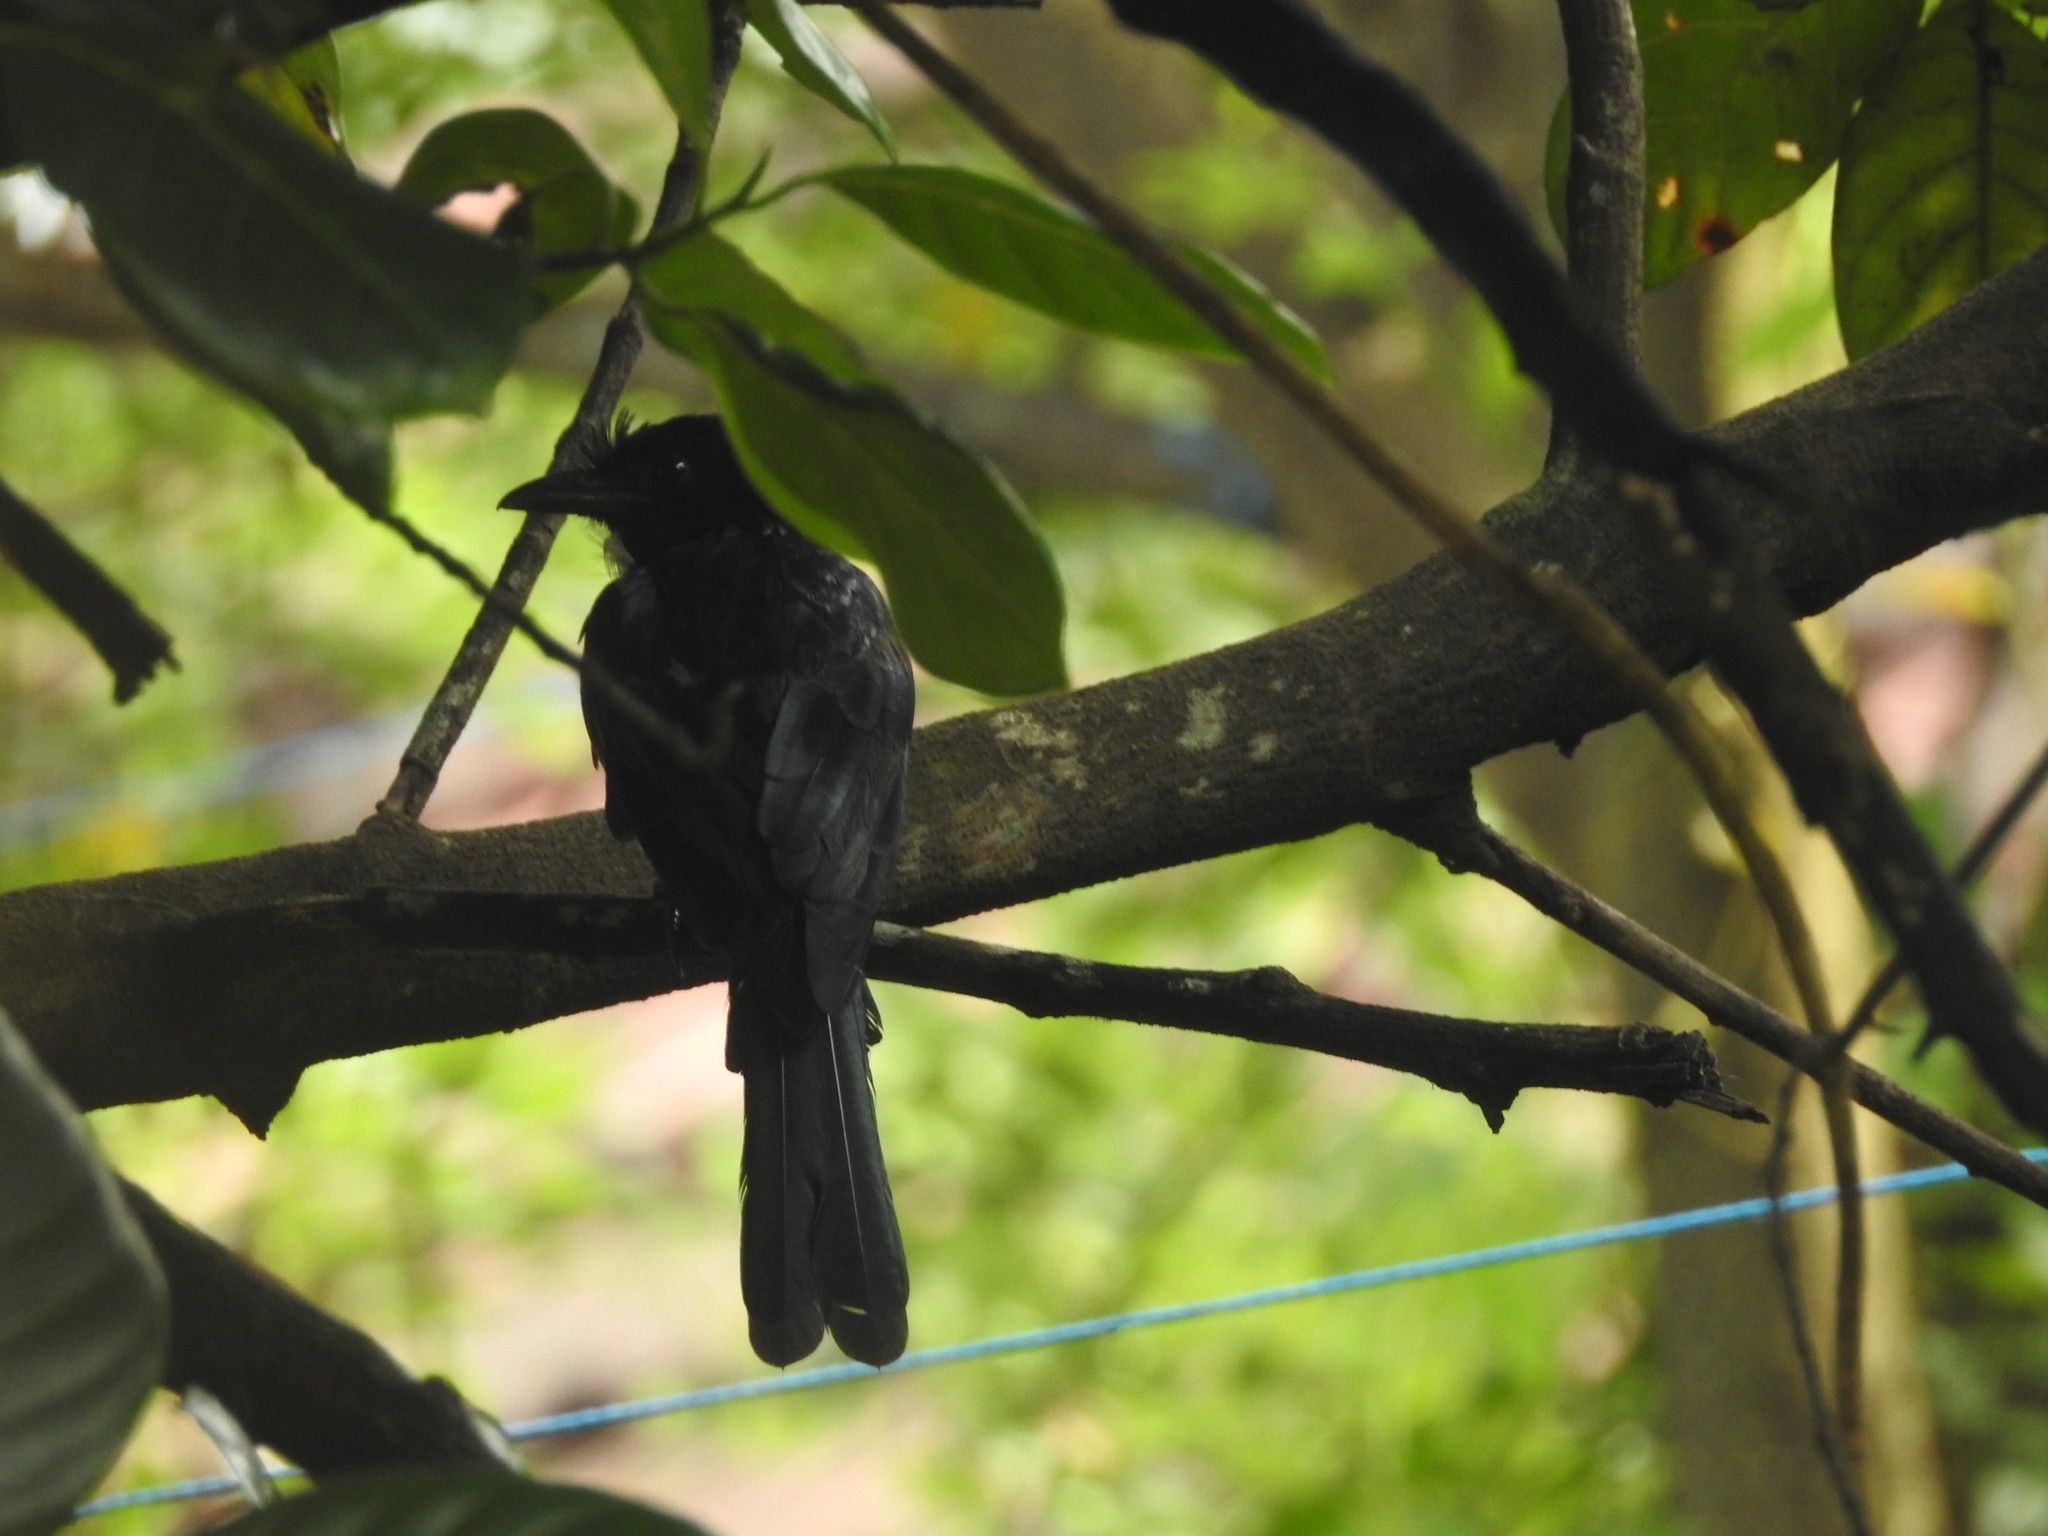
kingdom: Animalia
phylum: Chordata
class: Aves
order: Passeriformes
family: Dicruridae
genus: Dicrurus
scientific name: Dicrurus macrocercus
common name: Black drongo
